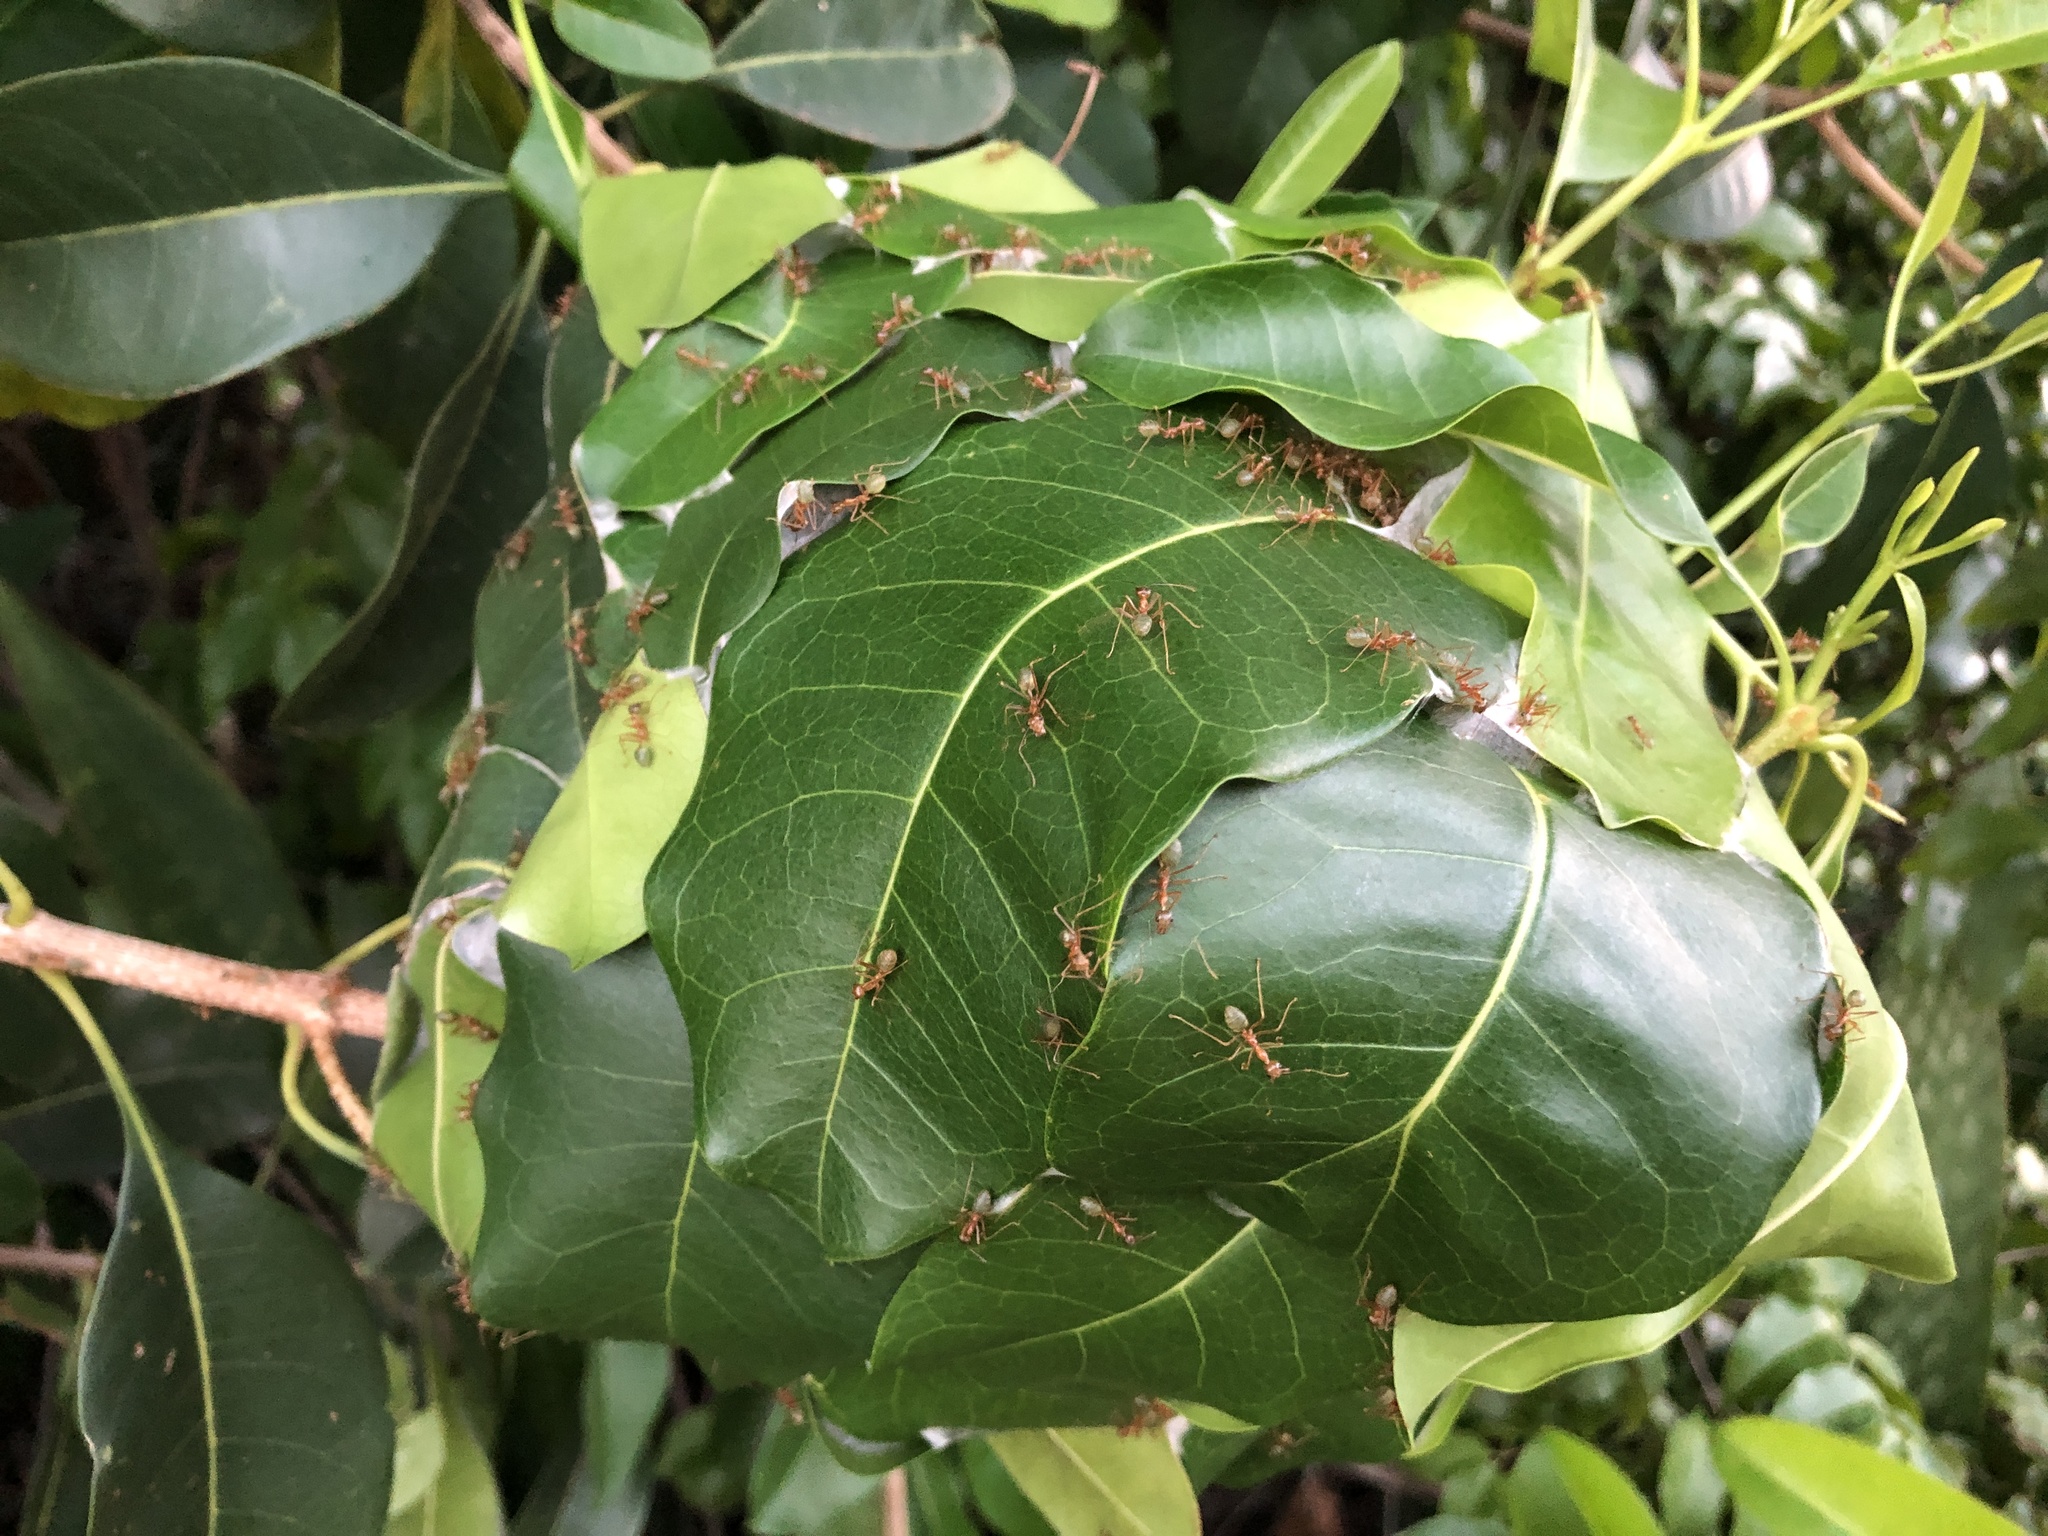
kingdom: Animalia
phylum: Arthropoda
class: Insecta
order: Hymenoptera
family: Formicidae
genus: Oecophylla
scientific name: Oecophylla smaragdina
